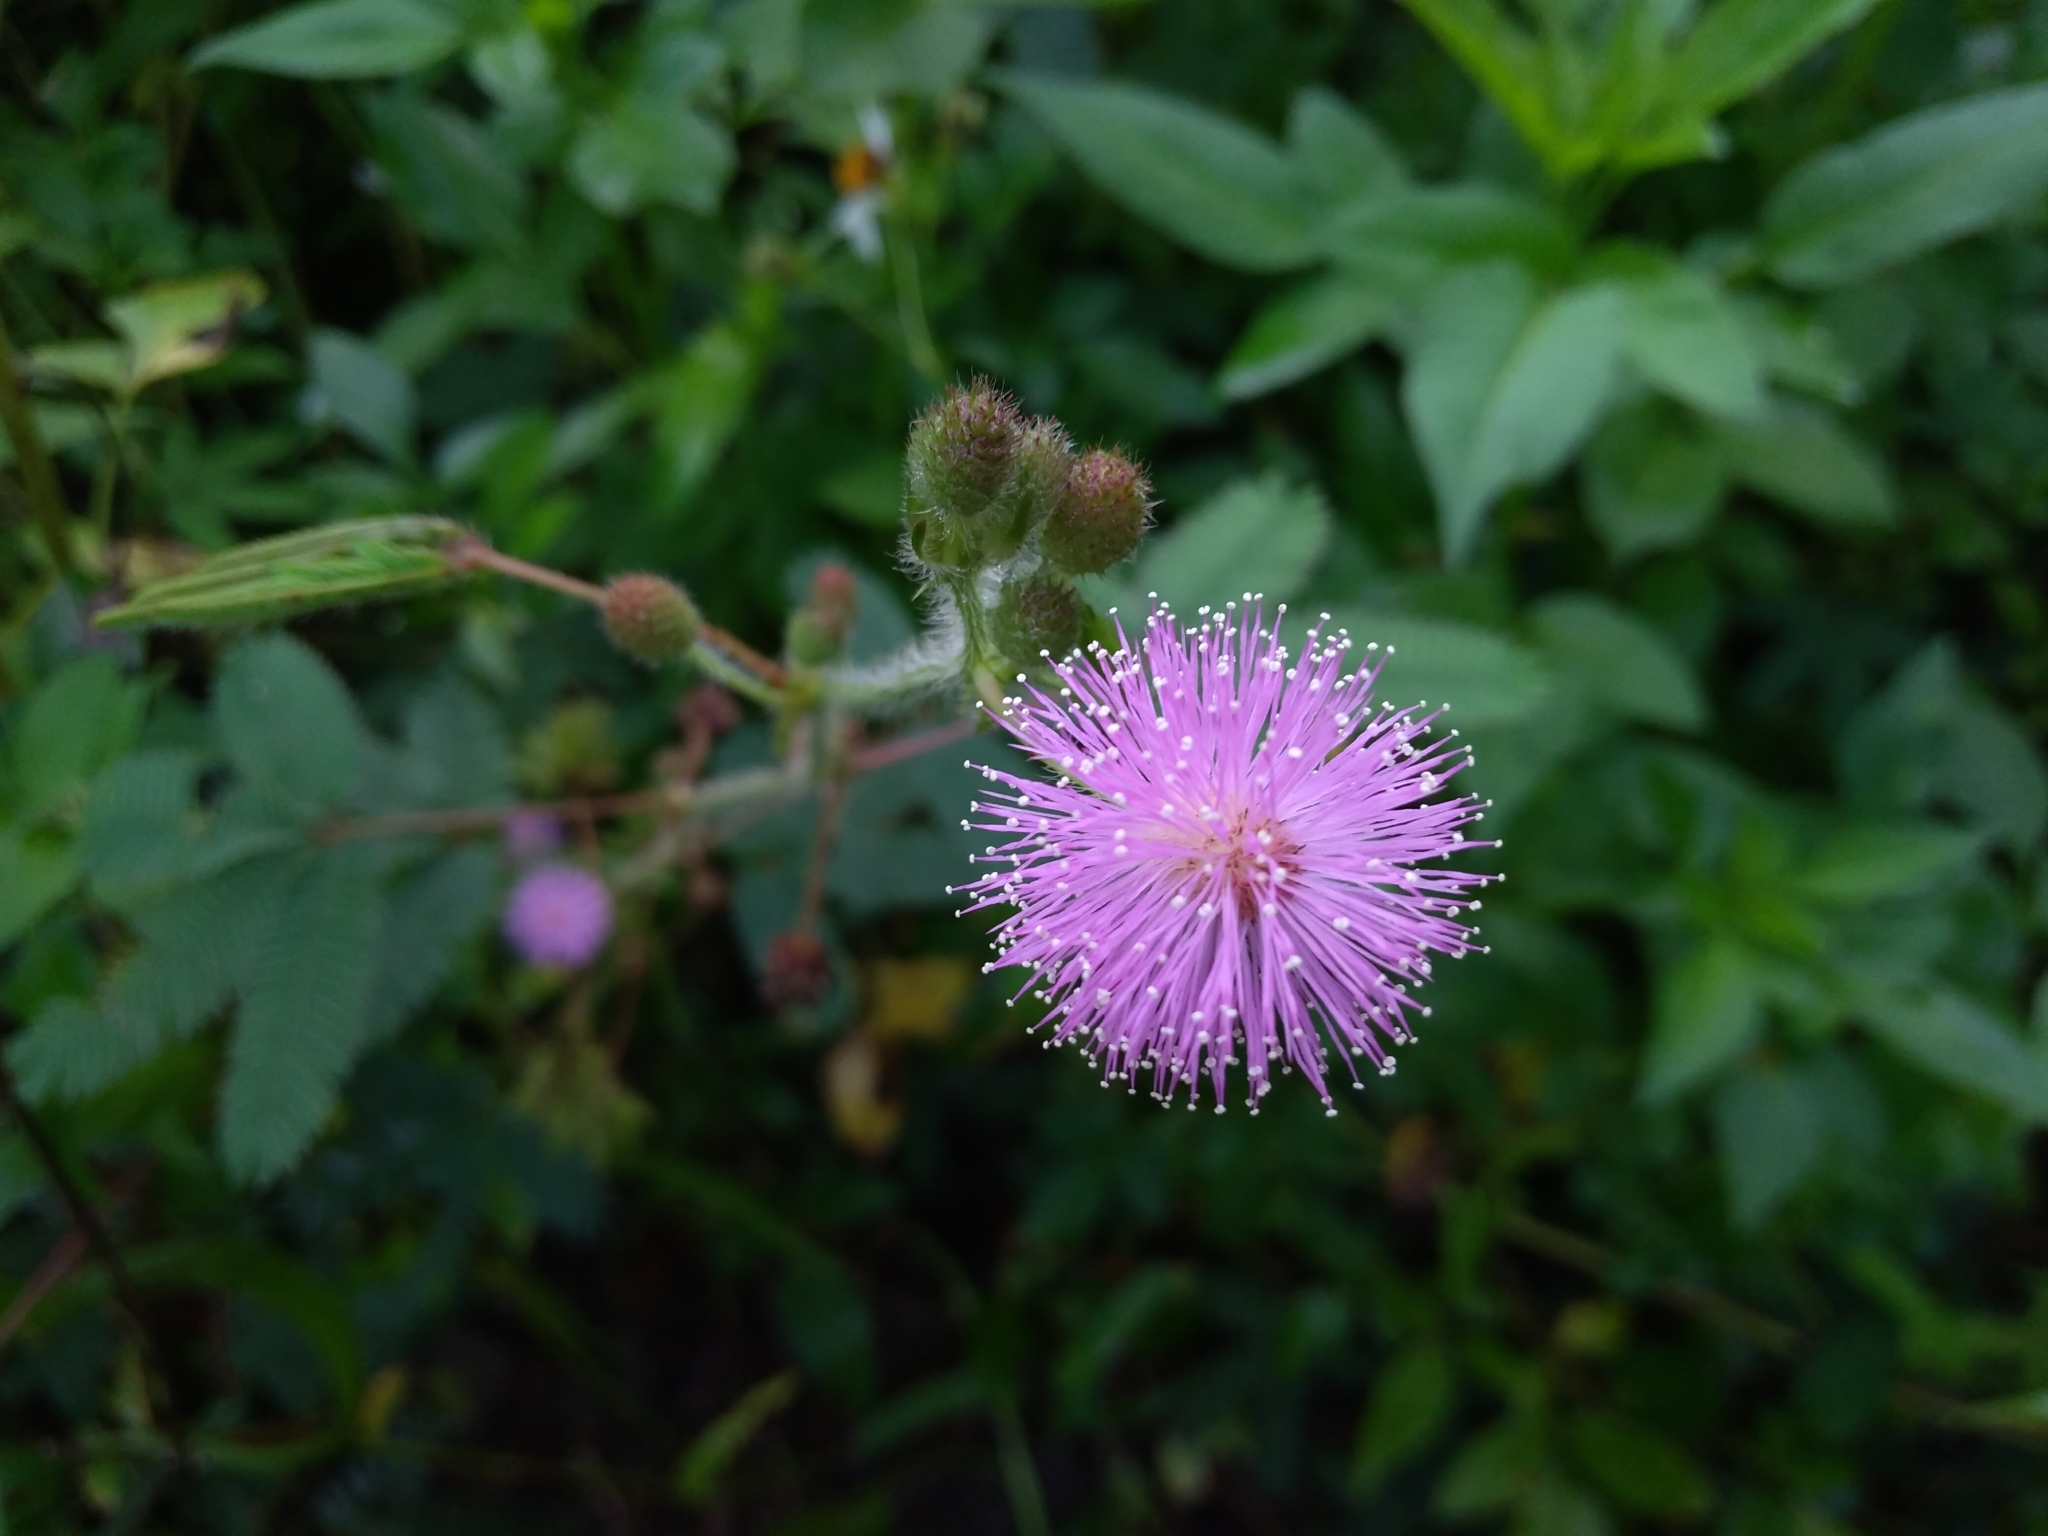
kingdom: Plantae
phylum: Tracheophyta
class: Magnoliopsida
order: Fabales
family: Fabaceae
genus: Mimosa
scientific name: Mimosa pudica
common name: Sensitive plant
